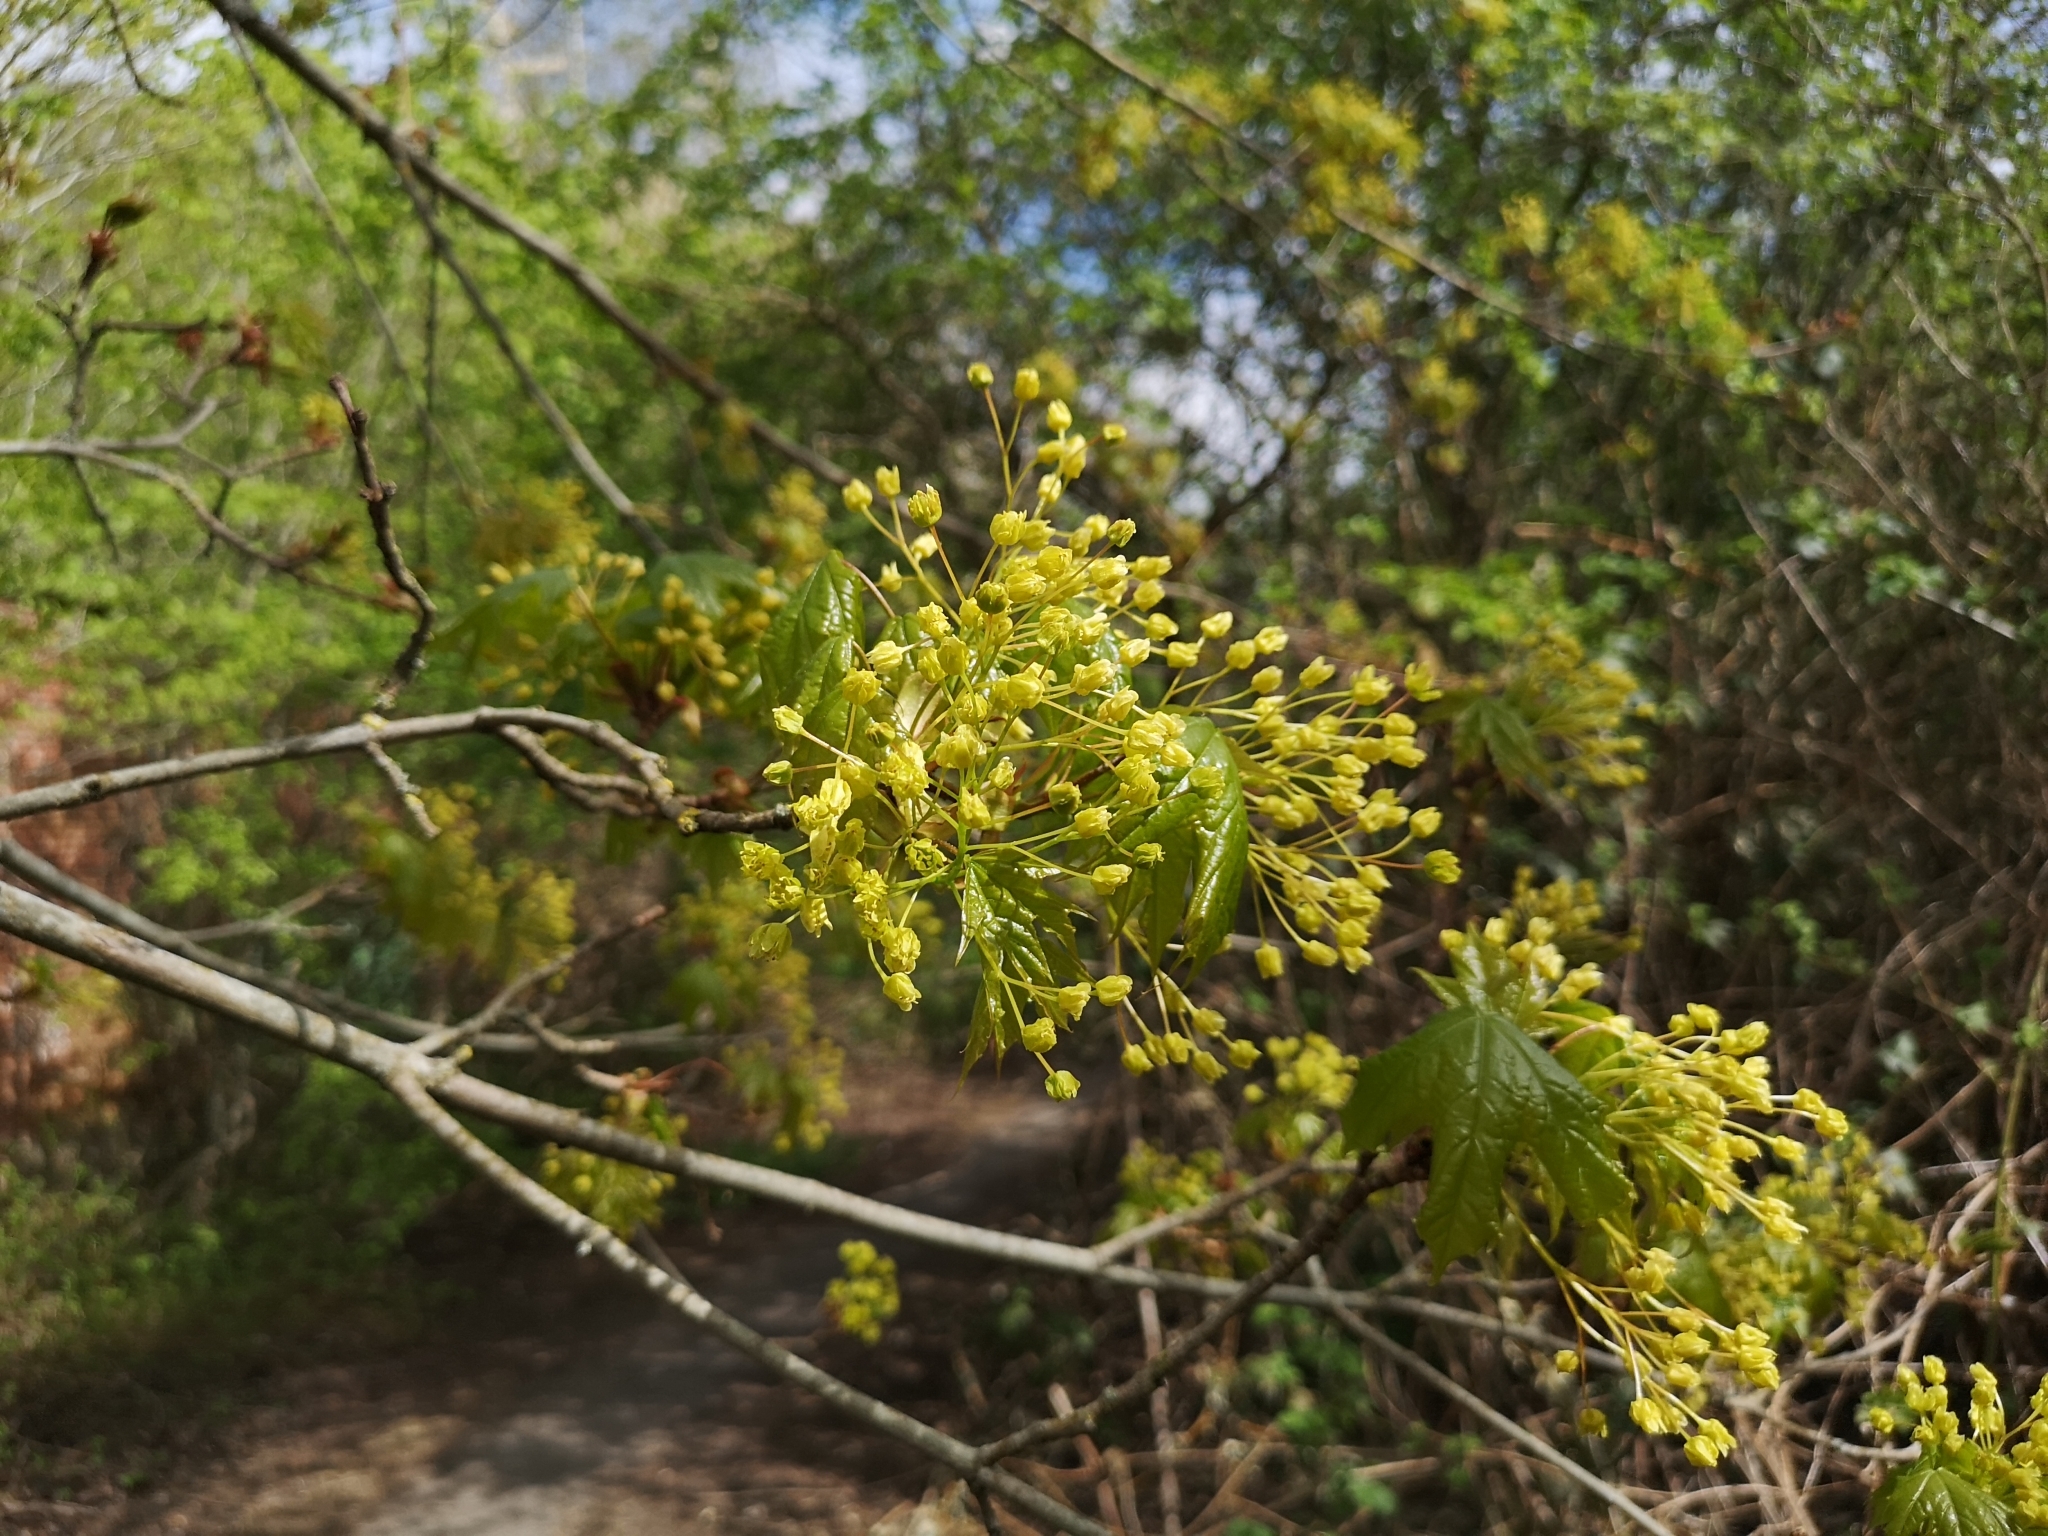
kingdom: Plantae
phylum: Tracheophyta
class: Magnoliopsida
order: Sapindales
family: Sapindaceae
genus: Acer
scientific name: Acer platanoides
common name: Norway maple
